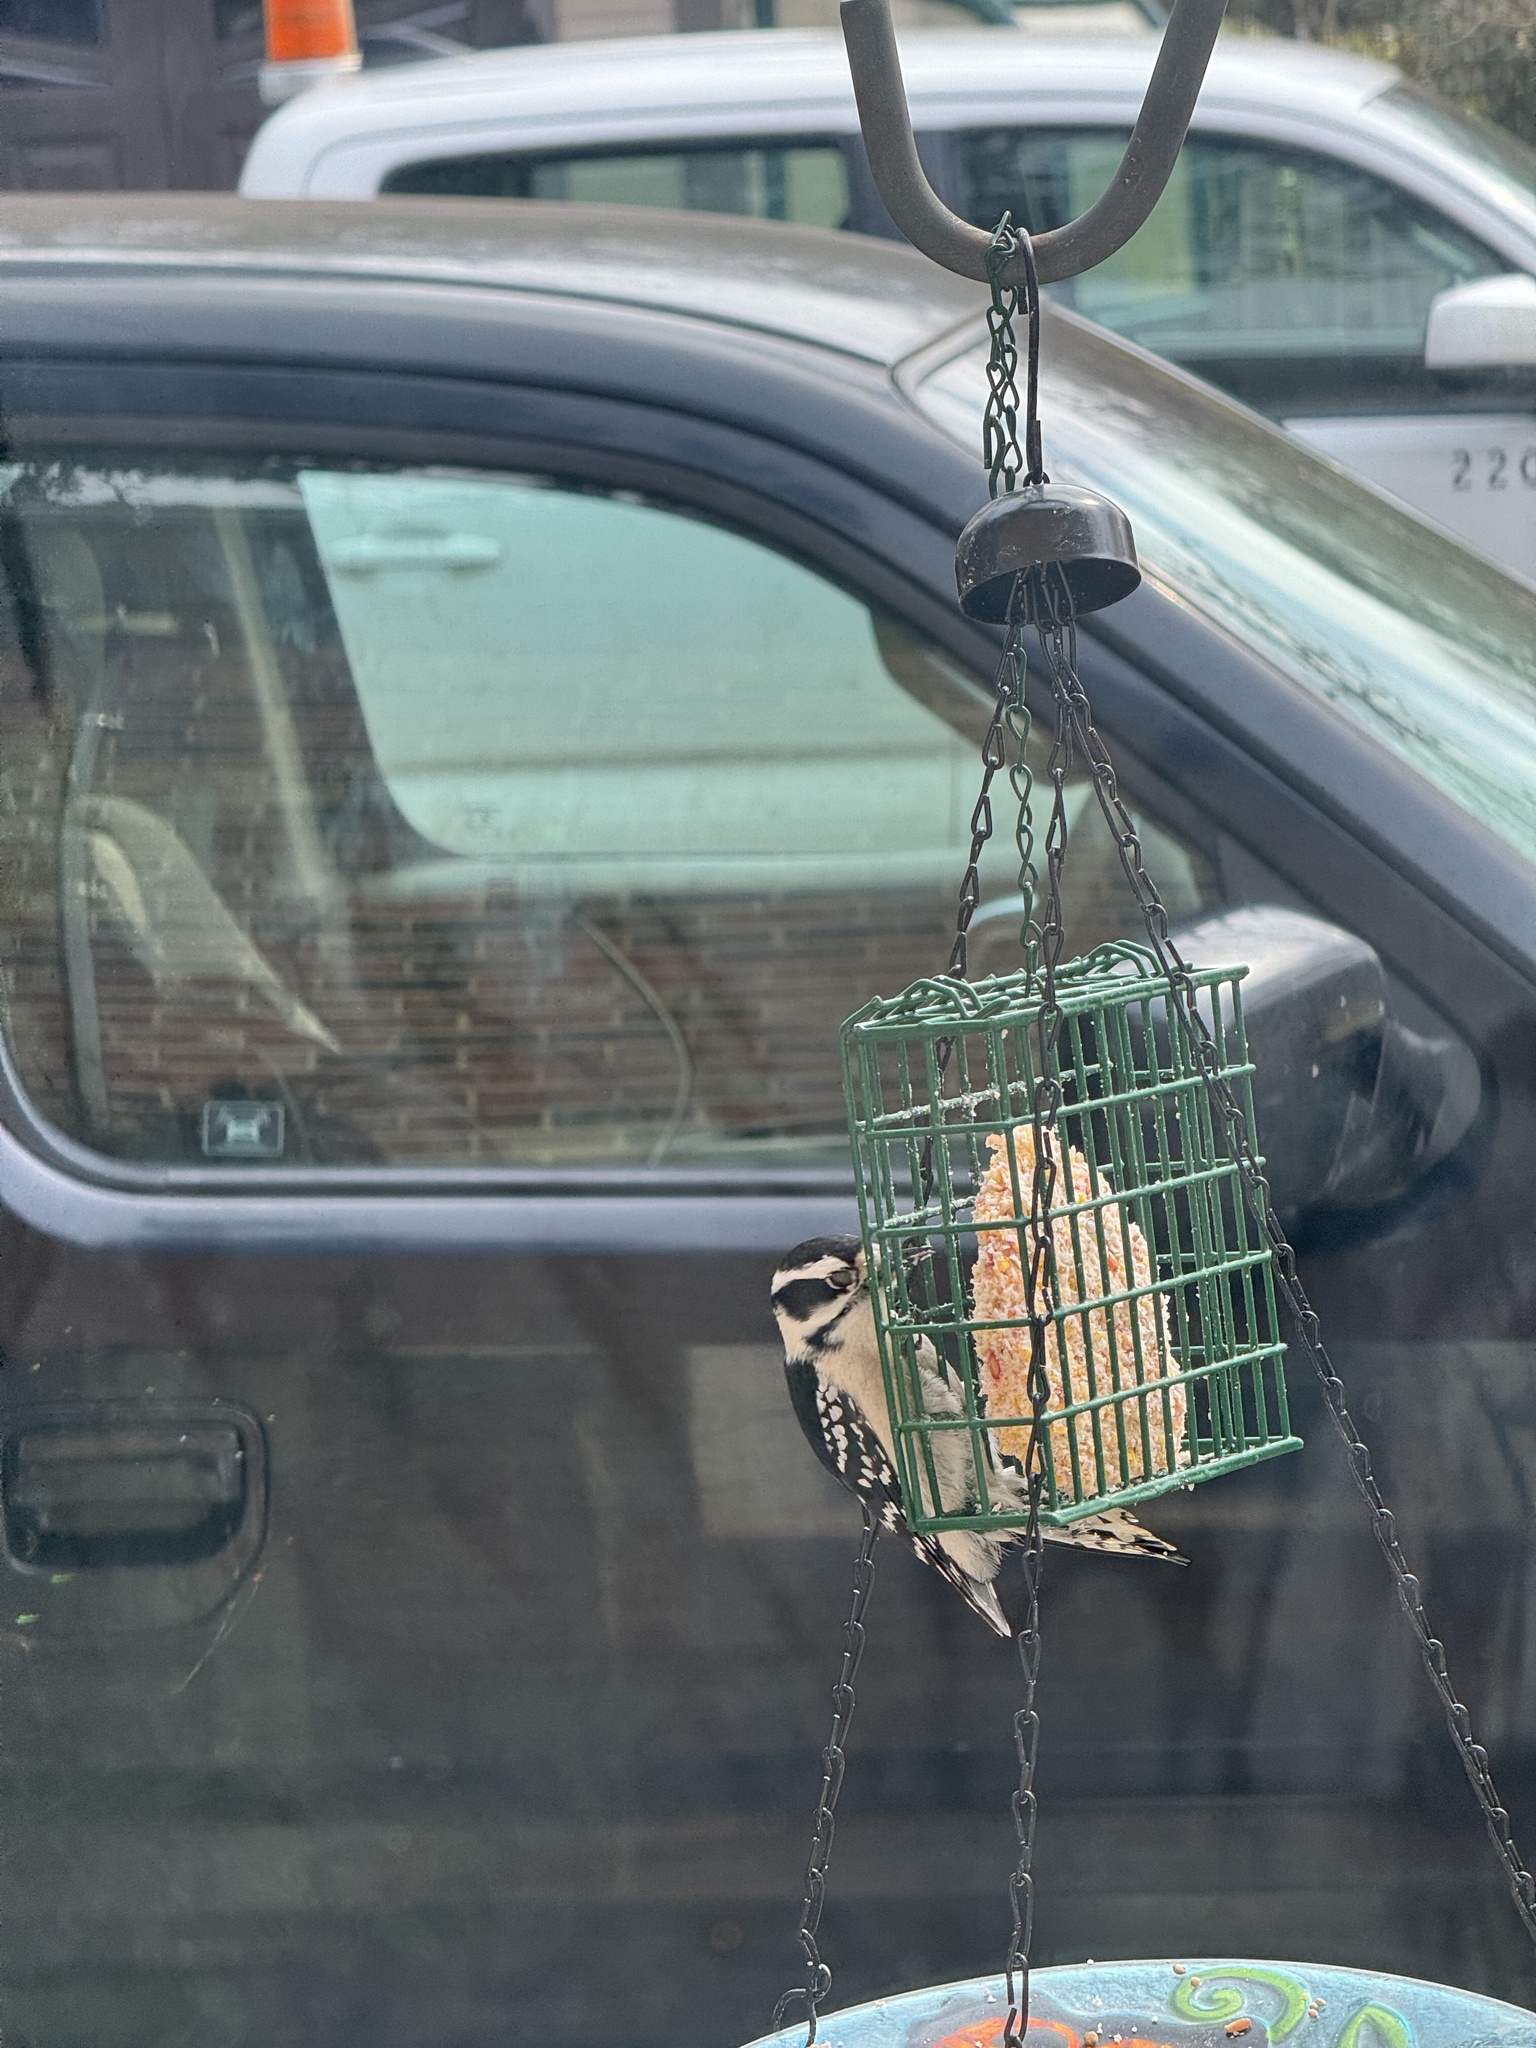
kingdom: Animalia
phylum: Chordata
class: Aves
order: Piciformes
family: Picidae
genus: Dryobates
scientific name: Dryobates pubescens
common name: Downy woodpecker
